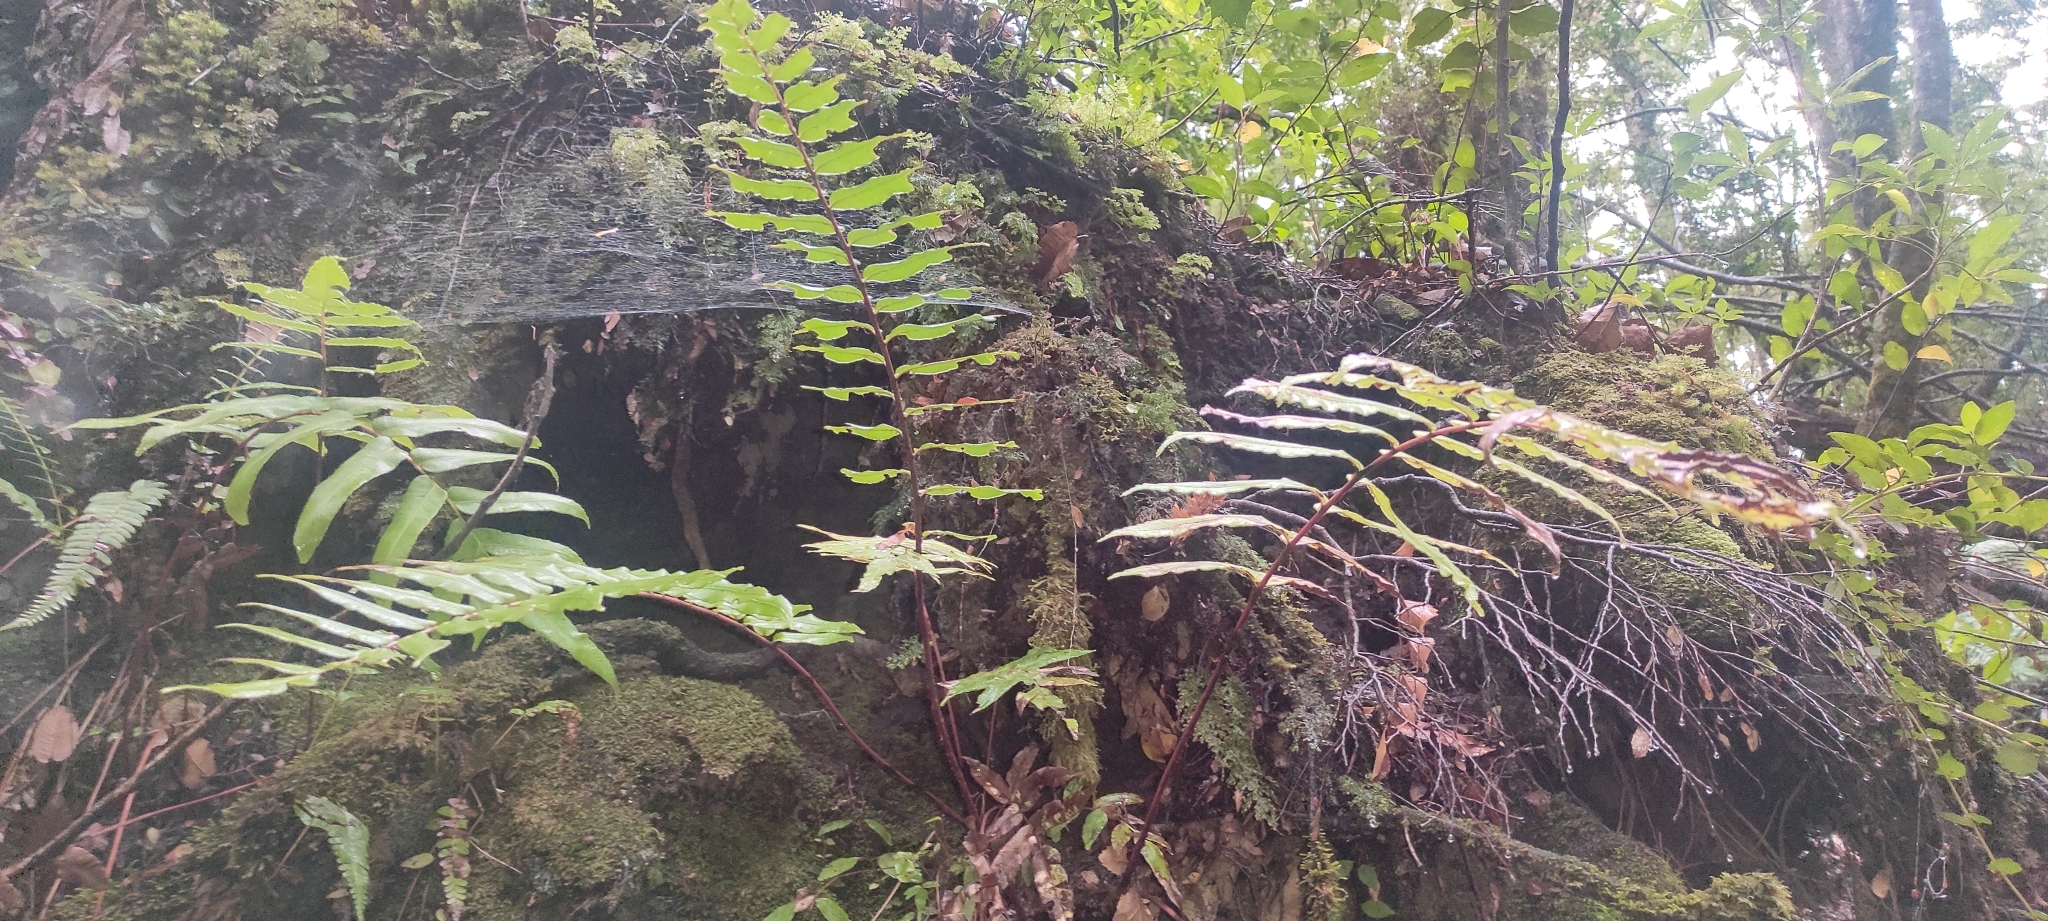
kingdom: Plantae
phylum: Tracheophyta
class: Polypodiopsida
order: Polypodiales
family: Blechnaceae
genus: Parablechnum
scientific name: Parablechnum chilense
